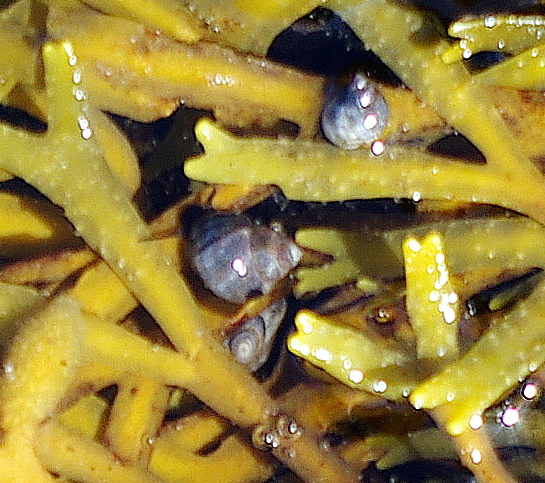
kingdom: Animalia
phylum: Mollusca
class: Gastropoda
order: Littorinimorpha
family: Littorinidae
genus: Littorina
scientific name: Littorina saxatilis
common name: Black-lined periwinkle
